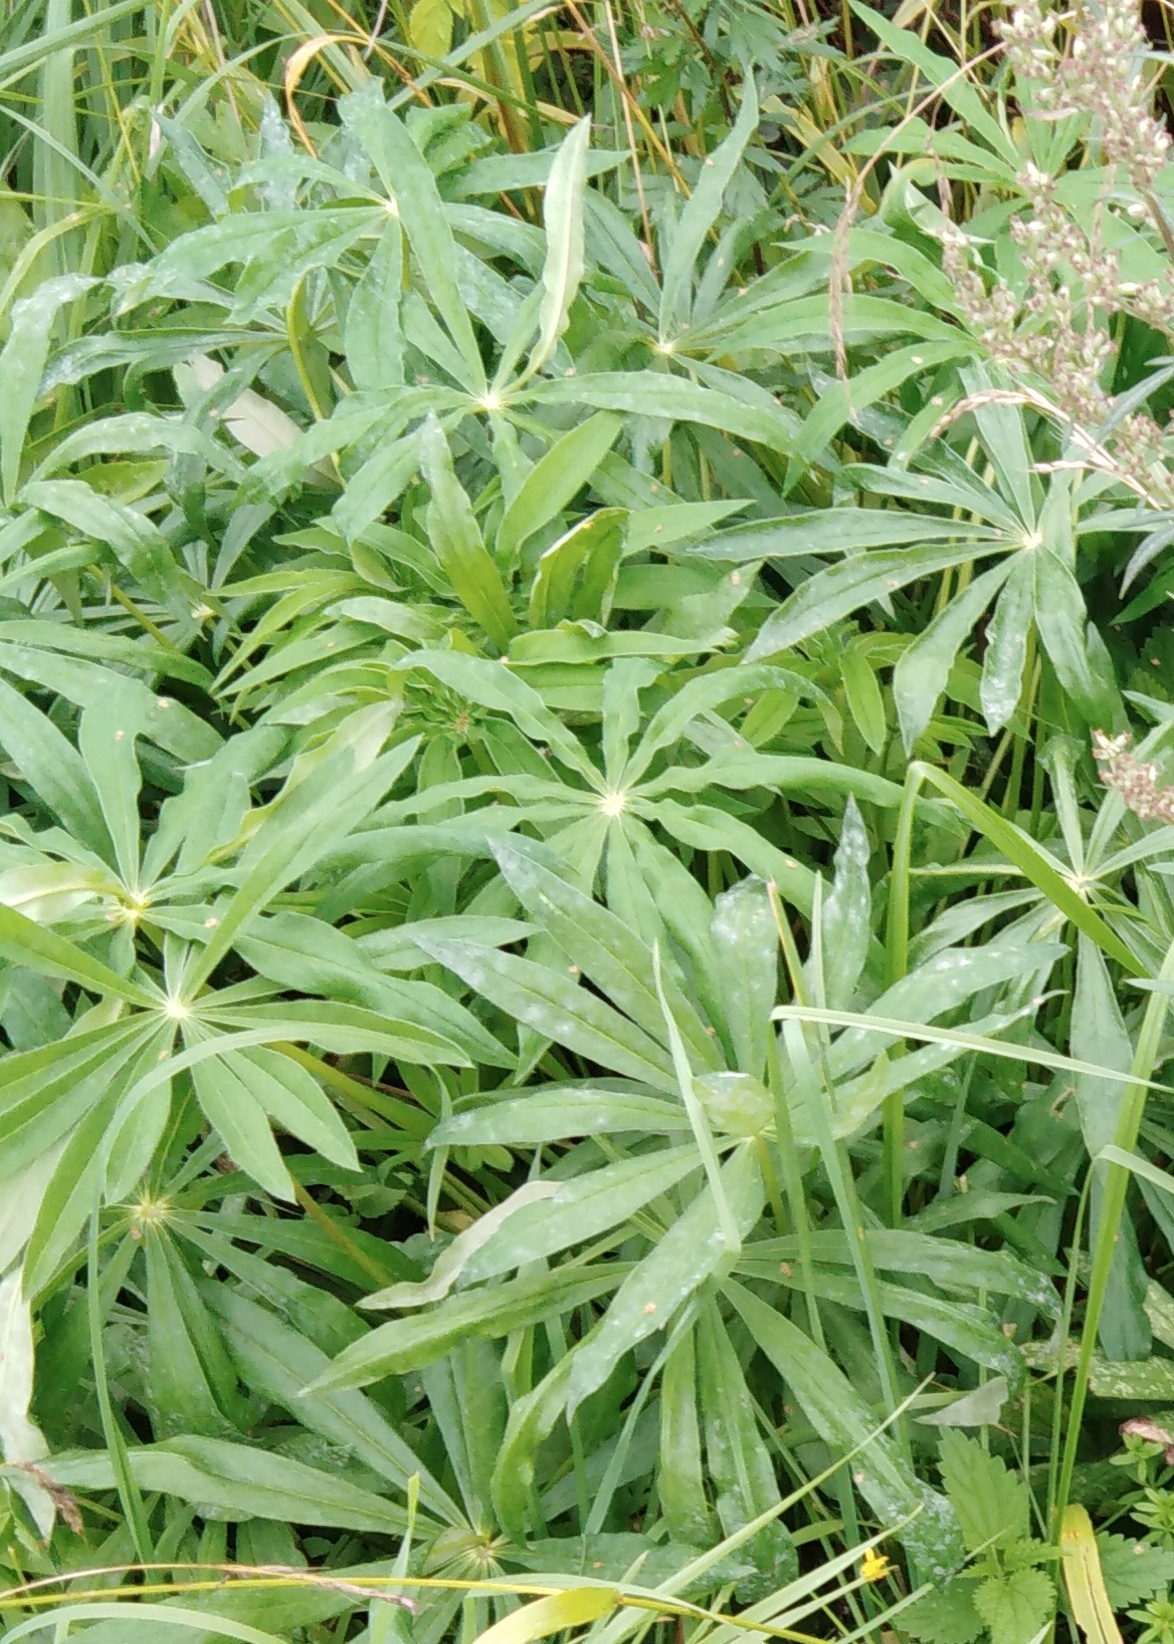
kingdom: Plantae
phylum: Tracheophyta
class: Magnoliopsida
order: Fabales
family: Fabaceae
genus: Lupinus
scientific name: Lupinus polyphyllus
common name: Garden lupin
